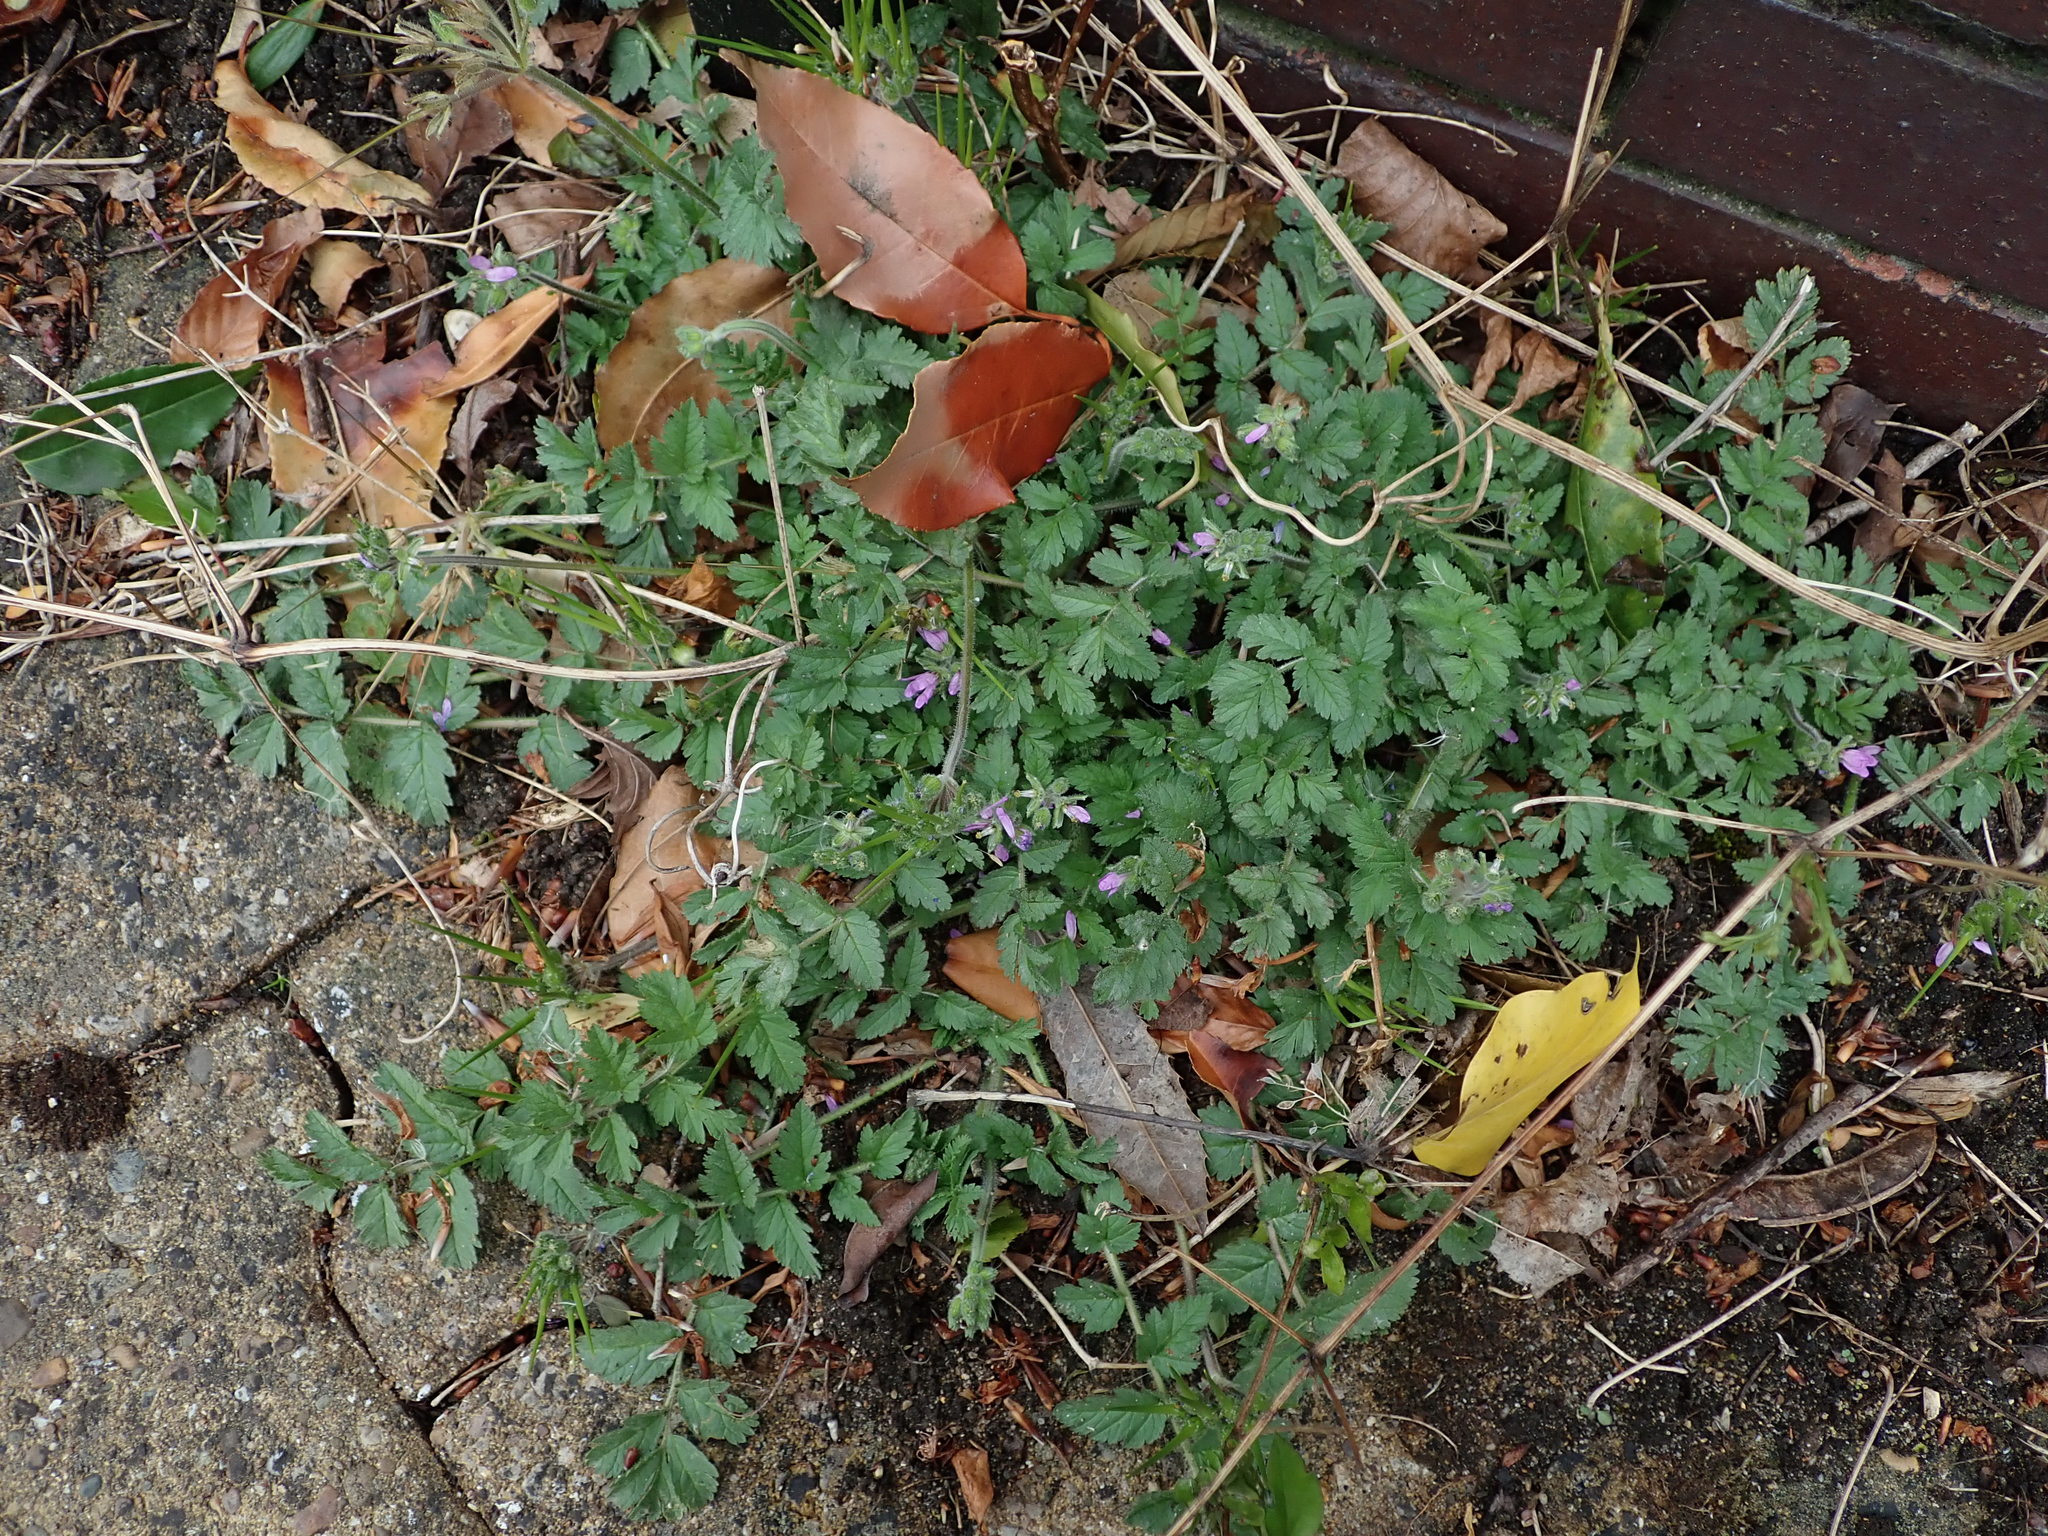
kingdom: Plantae
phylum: Tracheophyta
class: Magnoliopsida
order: Geraniales
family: Geraniaceae
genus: Erodium
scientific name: Erodium moschatum
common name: Musk stork's-bill
